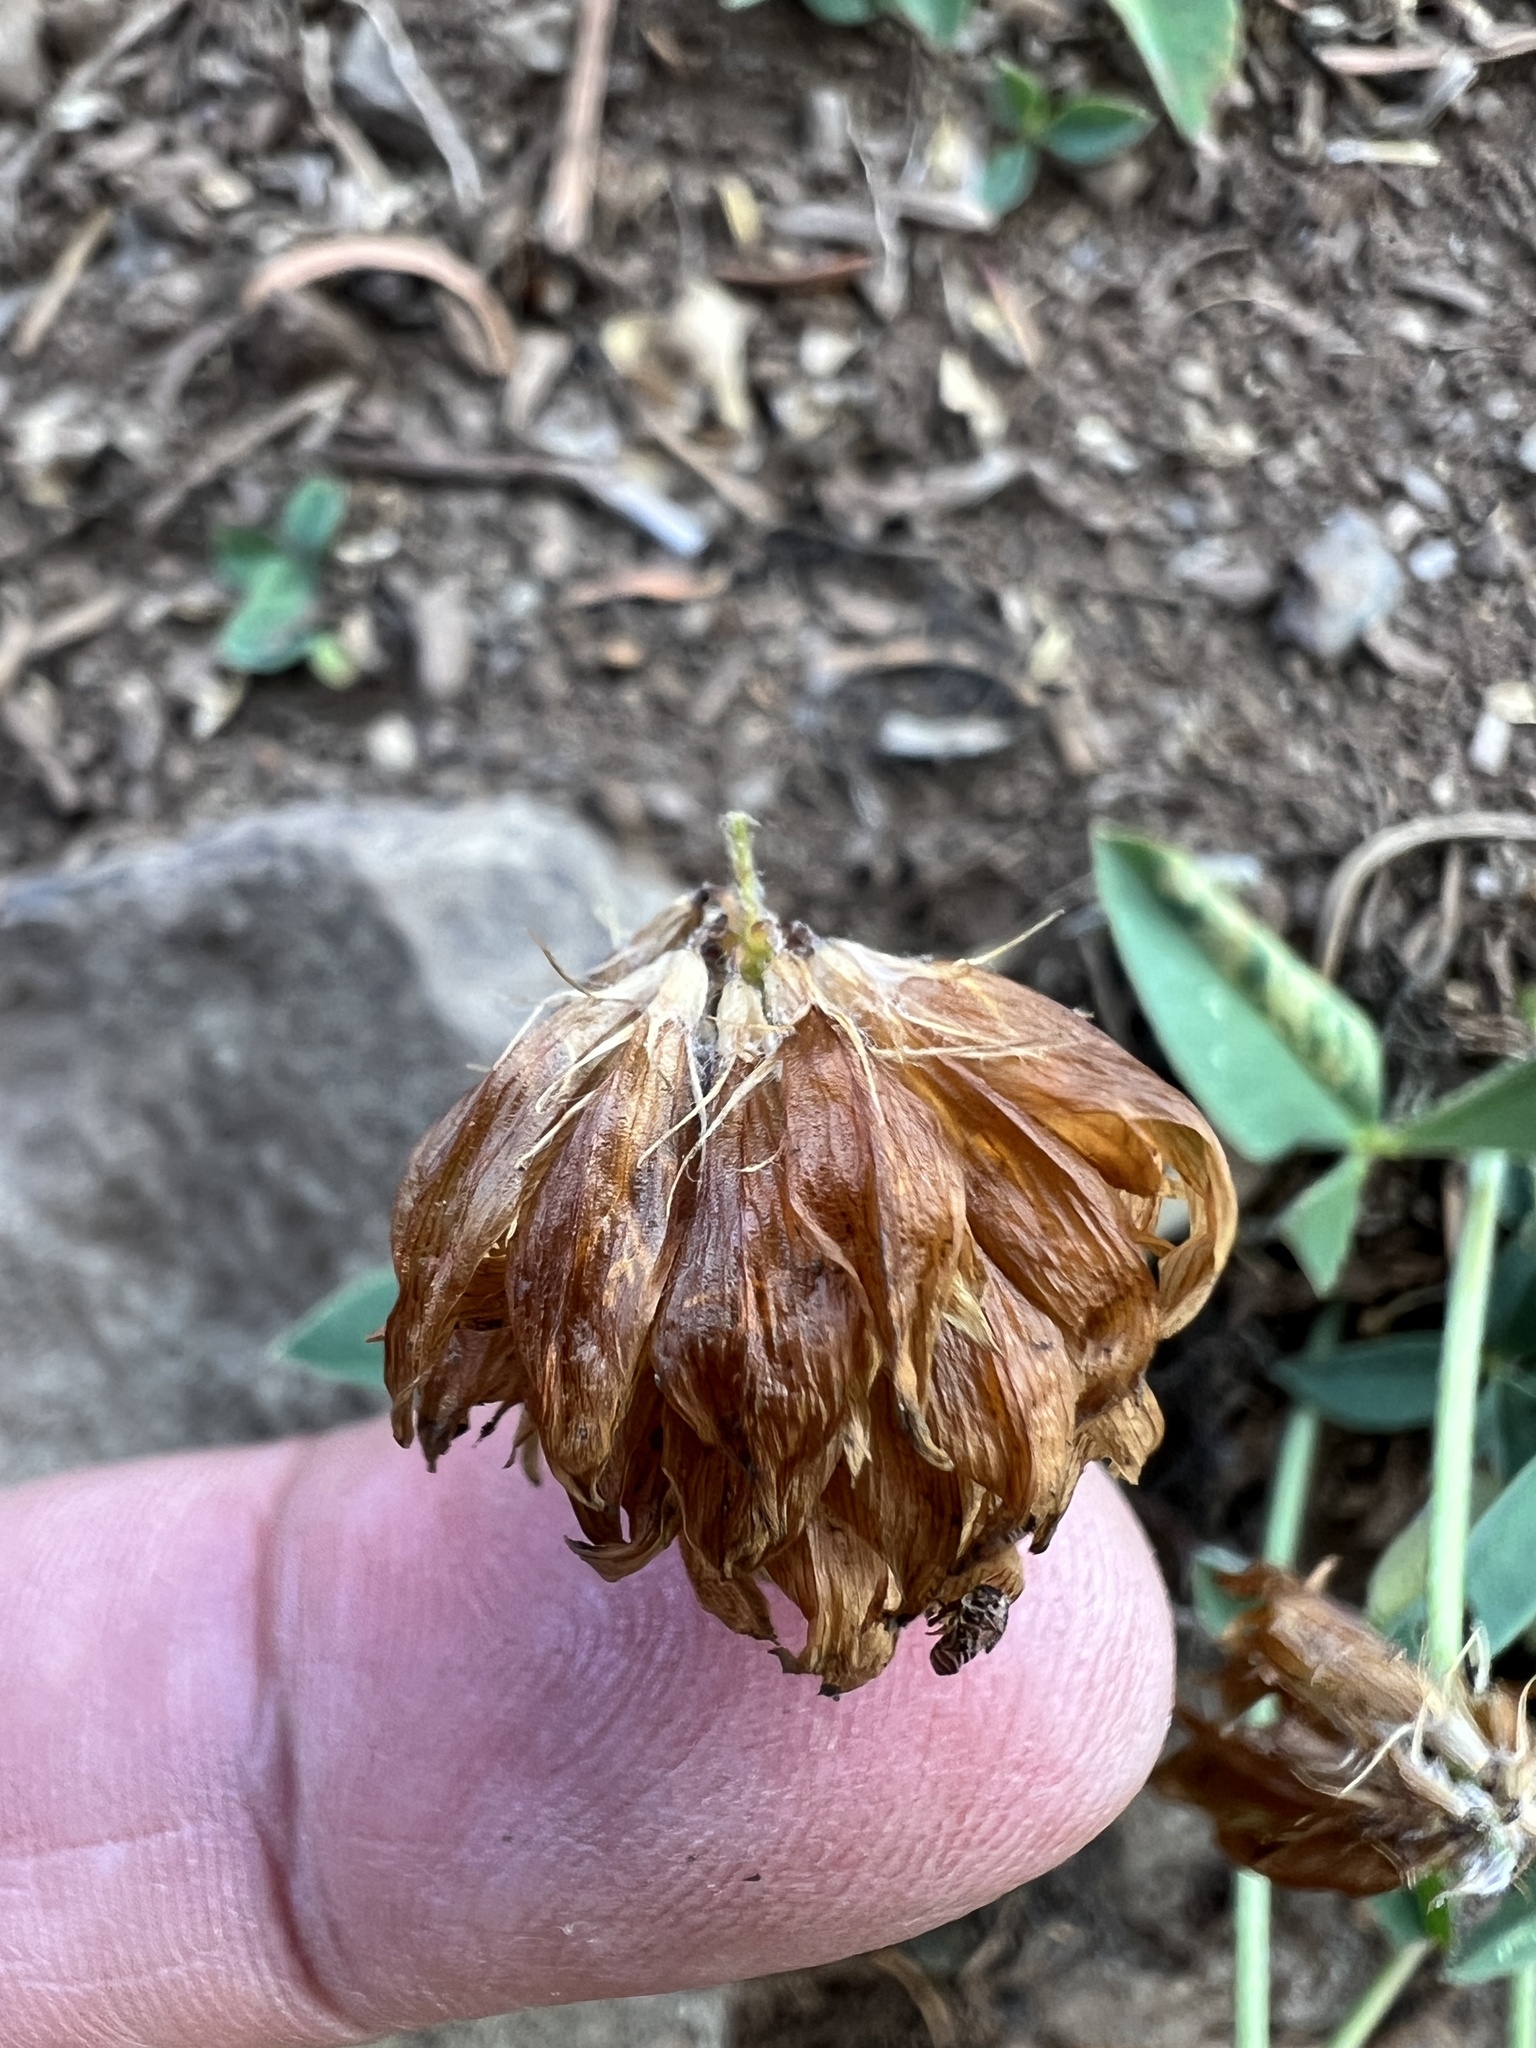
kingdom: Plantae
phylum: Tracheophyta
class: Magnoliopsida
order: Fabales
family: Fabaceae
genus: Trifolium
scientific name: Trifolium longipes
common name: Long-stalk clover
